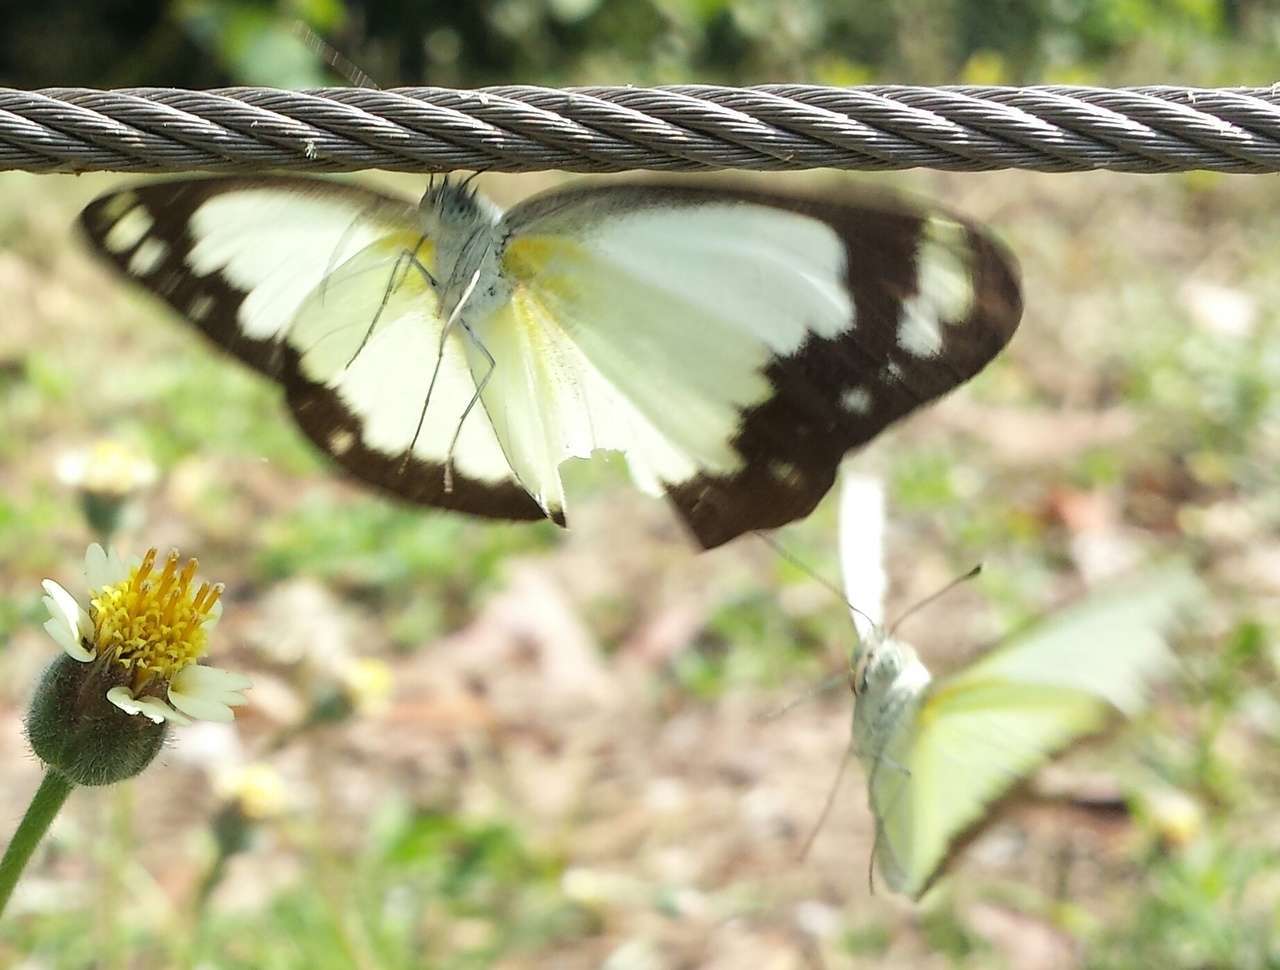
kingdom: Animalia
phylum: Arthropoda
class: Insecta
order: Lepidoptera
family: Pieridae
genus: Cepora
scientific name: Cepora perimale
